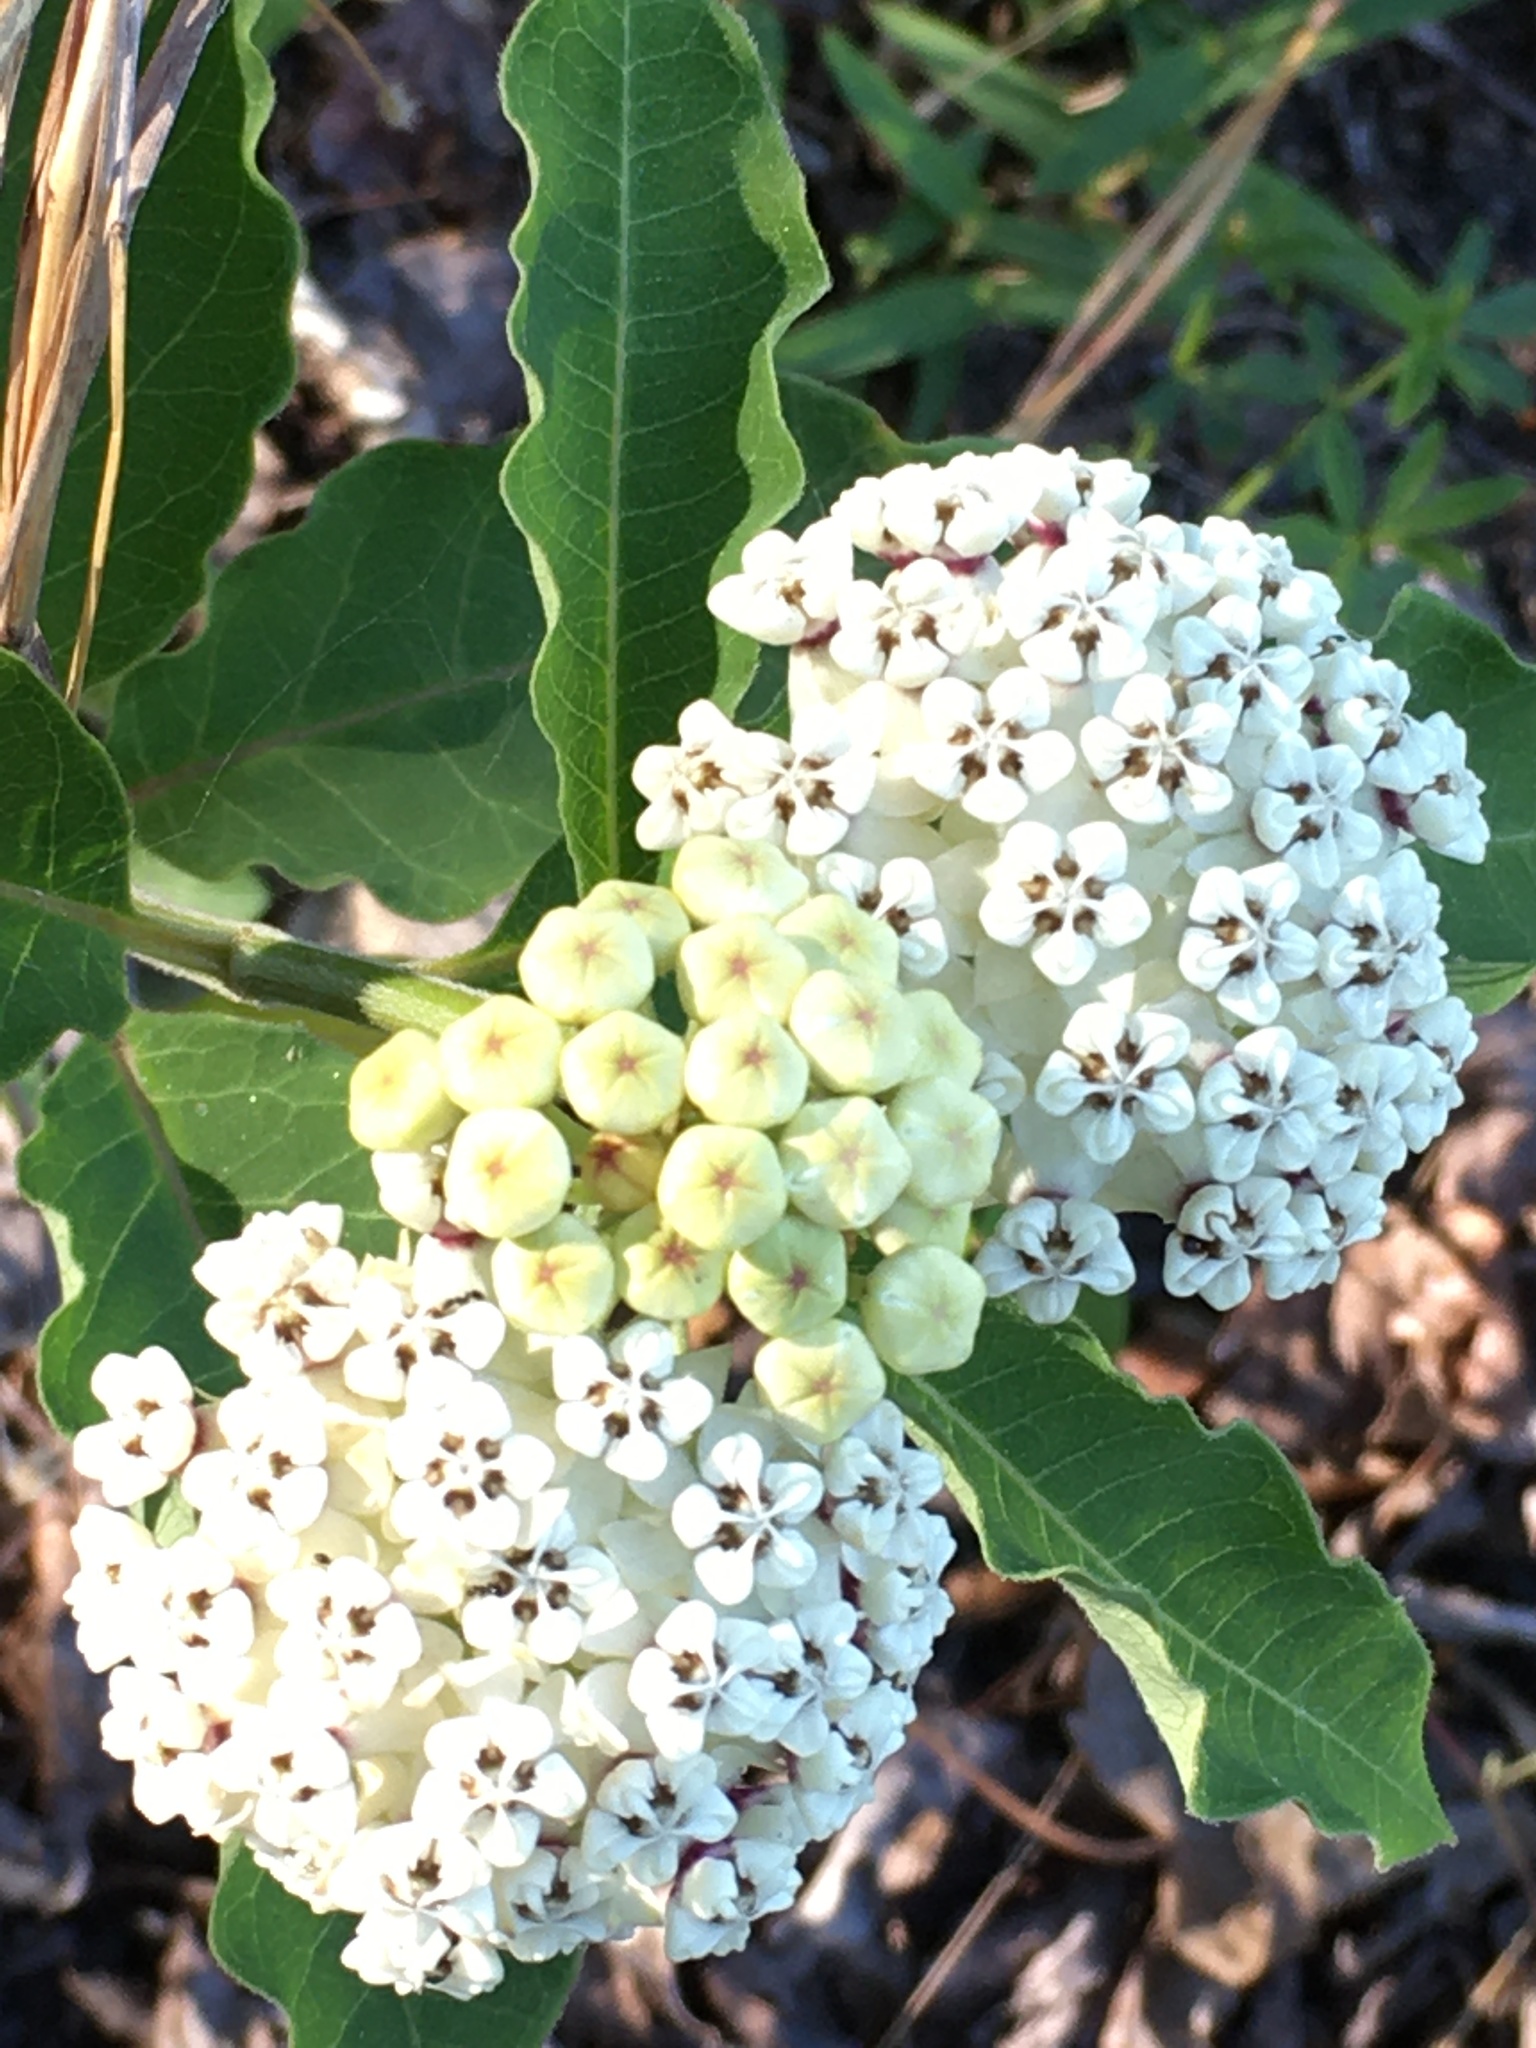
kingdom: Plantae
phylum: Tracheophyta
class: Magnoliopsida
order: Gentianales
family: Apocynaceae
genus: Asclepias
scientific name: Asclepias variegata
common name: Variegated milkweed
